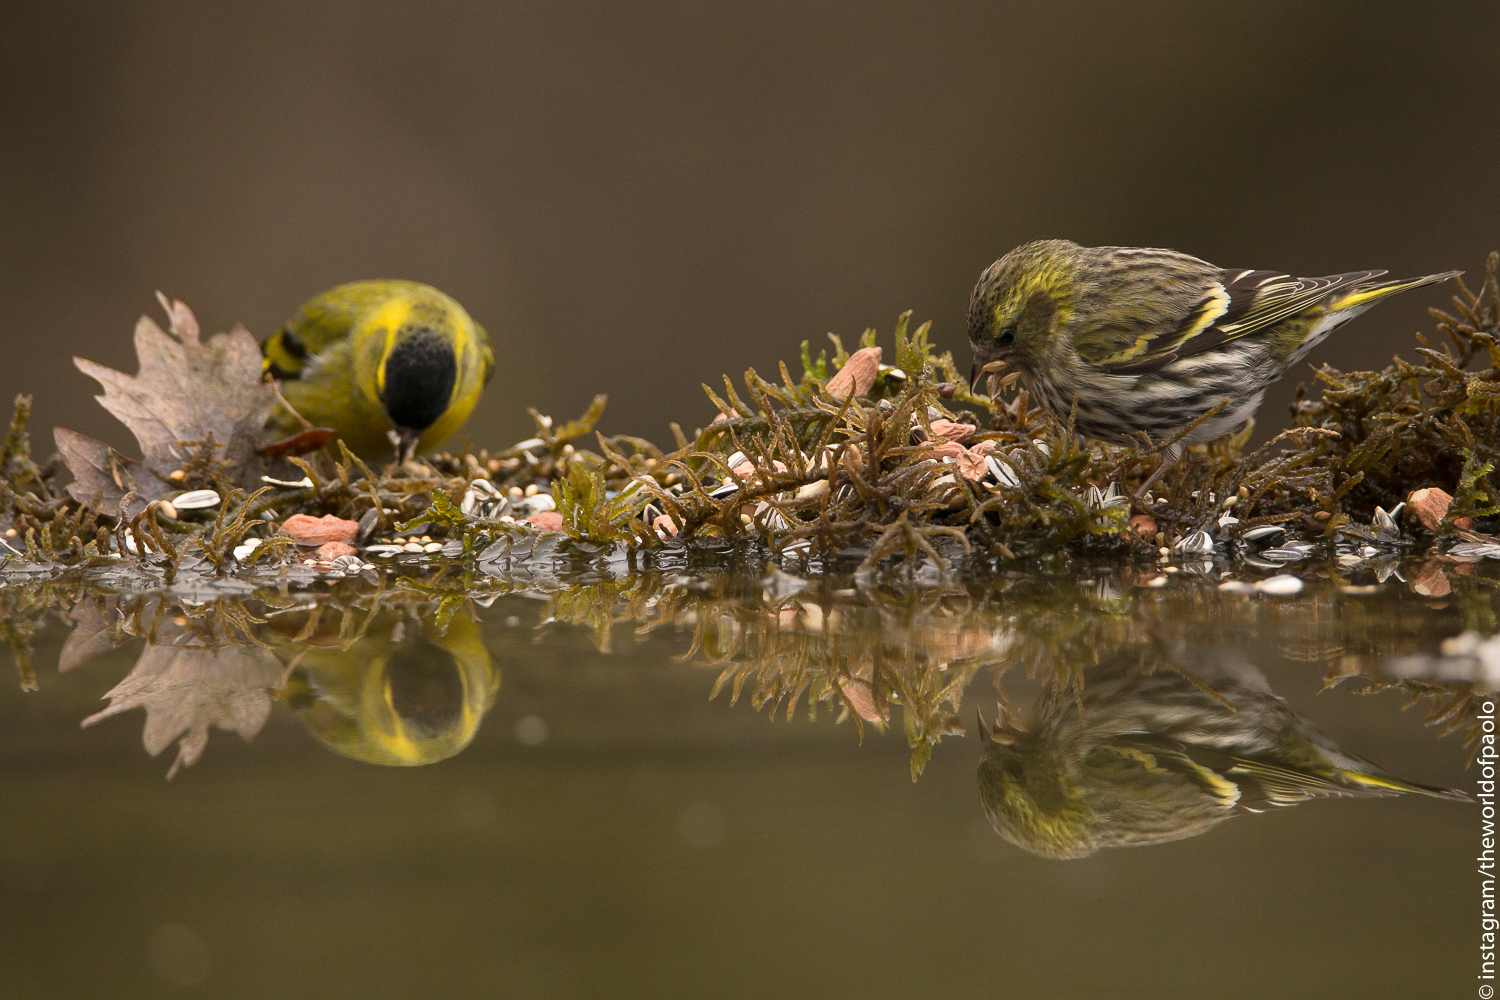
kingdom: Animalia
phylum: Chordata
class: Aves
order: Passeriformes
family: Fringillidae
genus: Spinus
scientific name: Spinus spinus
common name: Eurasian siskin
